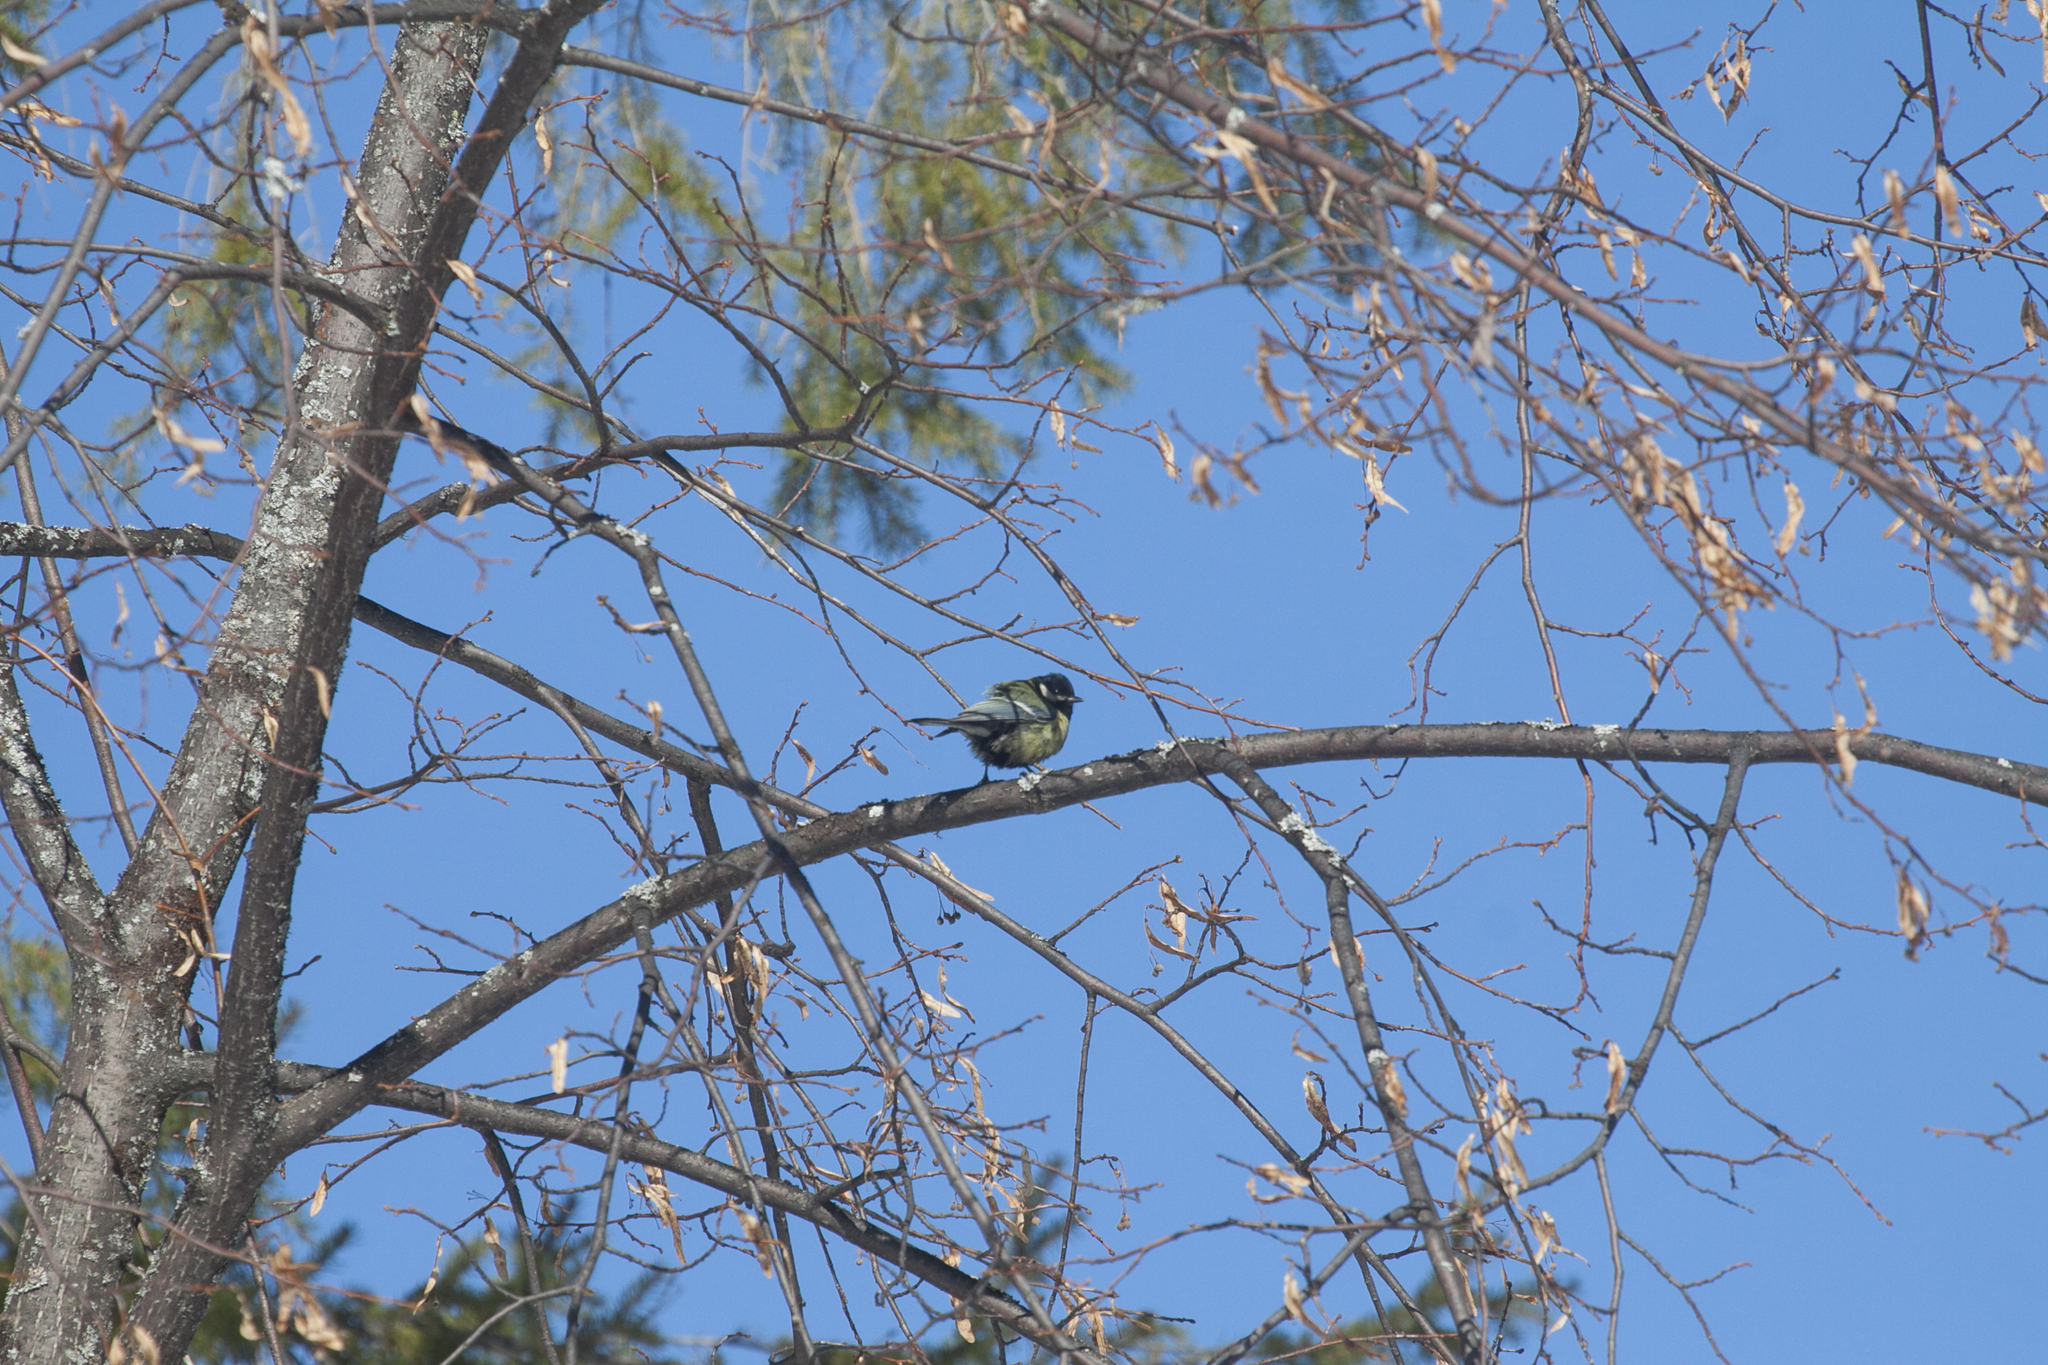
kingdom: Animalia
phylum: Chordata
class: Aves
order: Passeriformes
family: Paridae
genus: Parus
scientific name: Parus major
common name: Great tit
